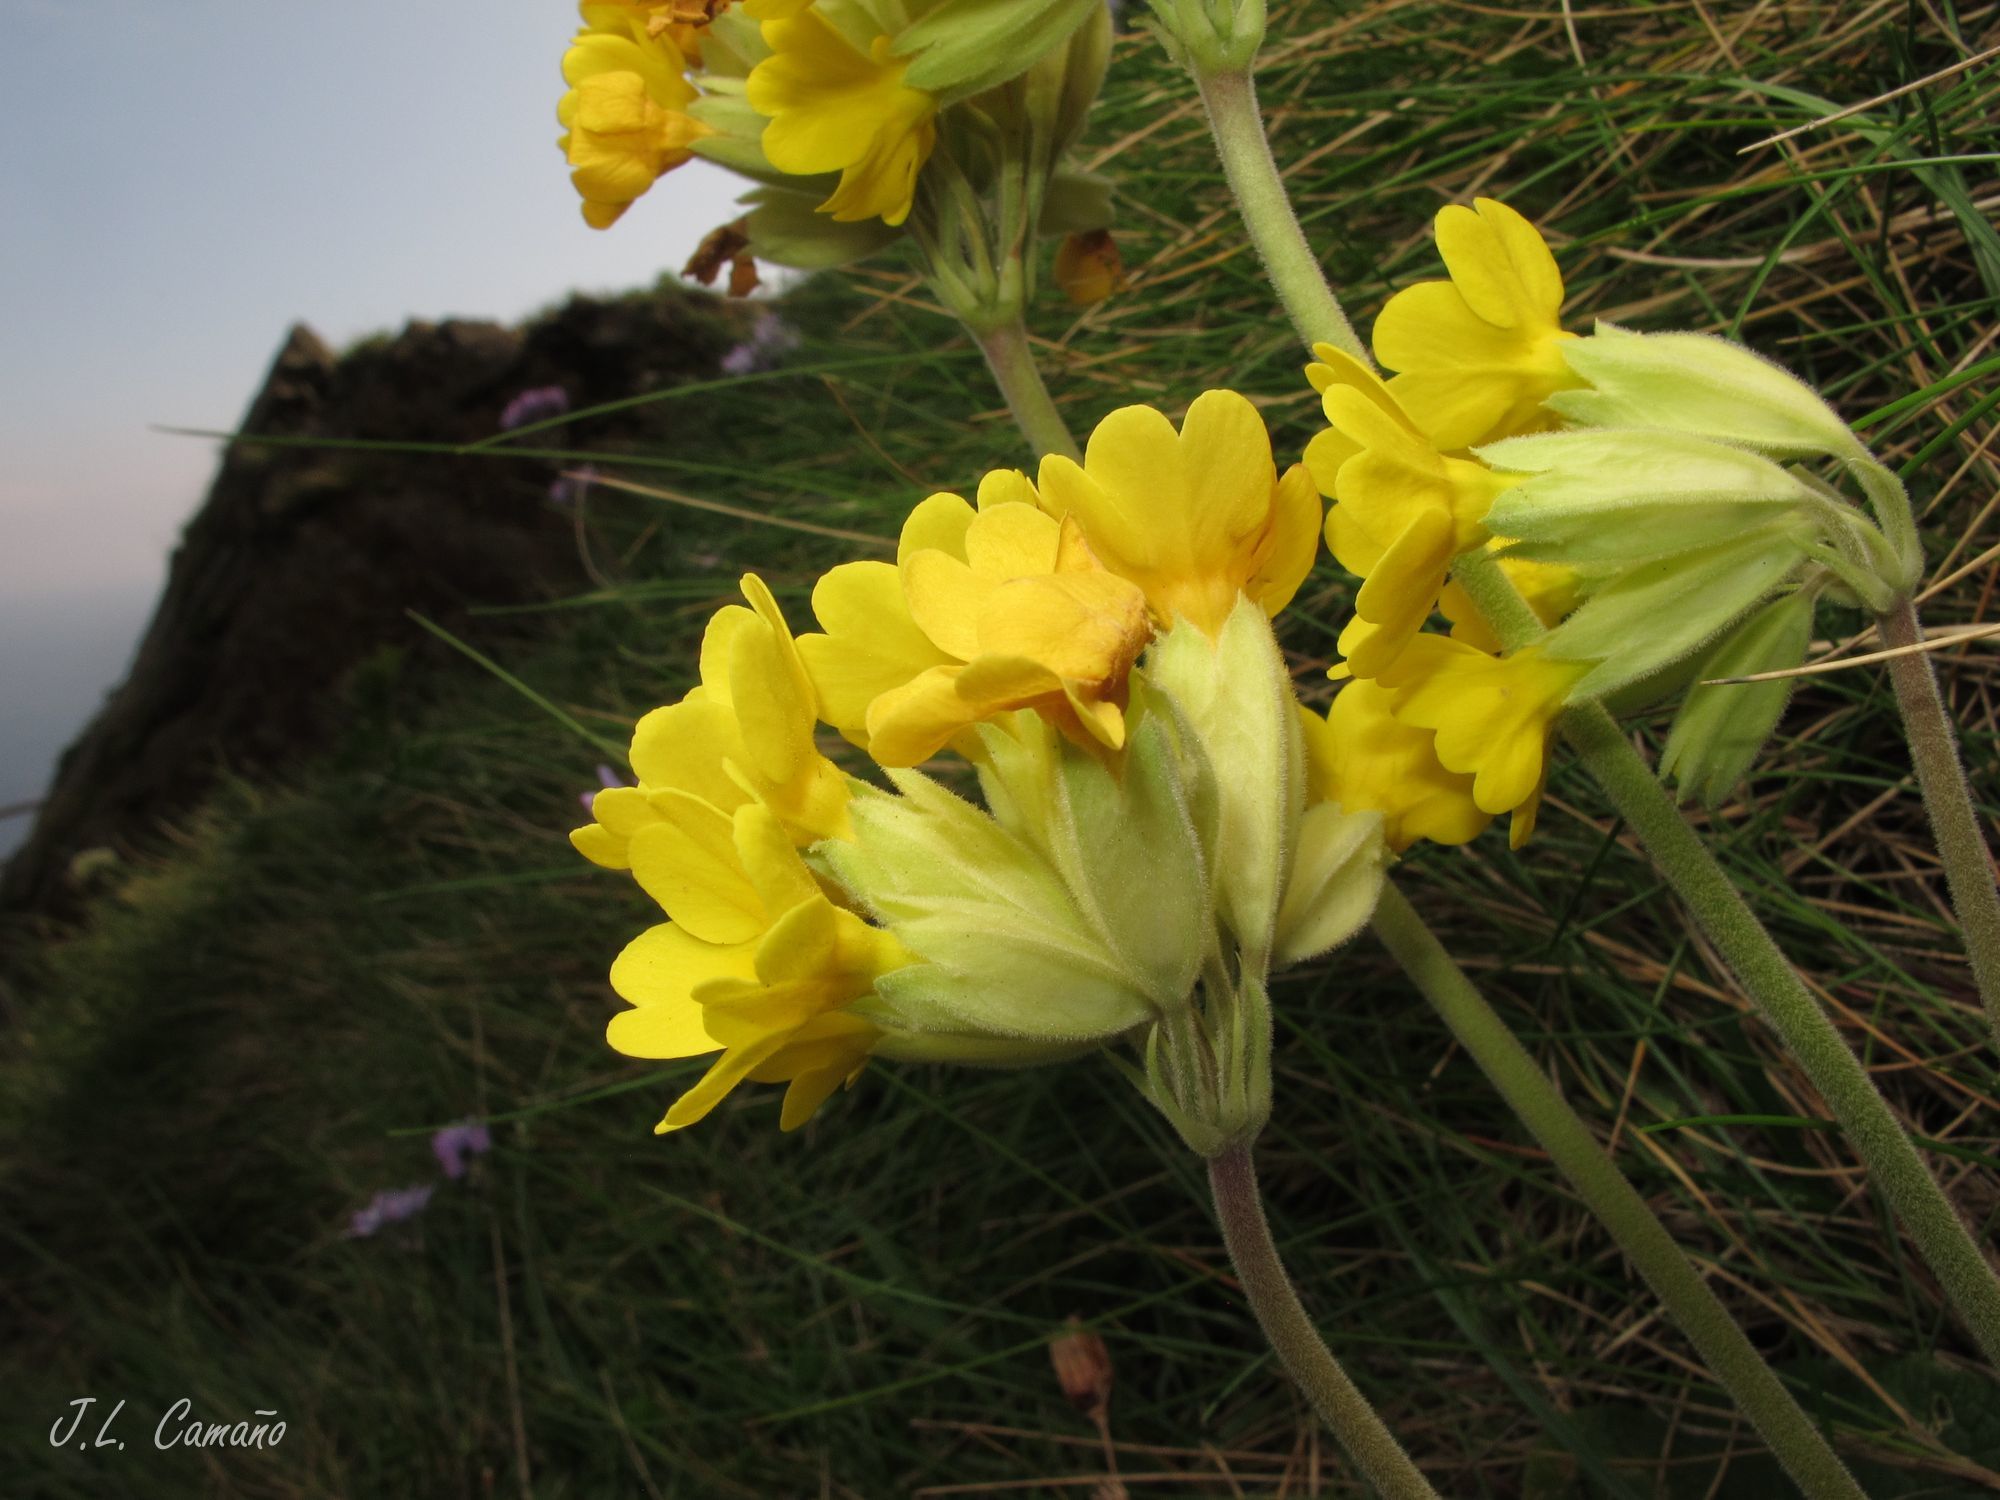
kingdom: Plantae
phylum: Tracheophyta
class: Magnoliopsida
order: Ericales
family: Primulaceae
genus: Primula
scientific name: Primula veris
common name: Cowslip
